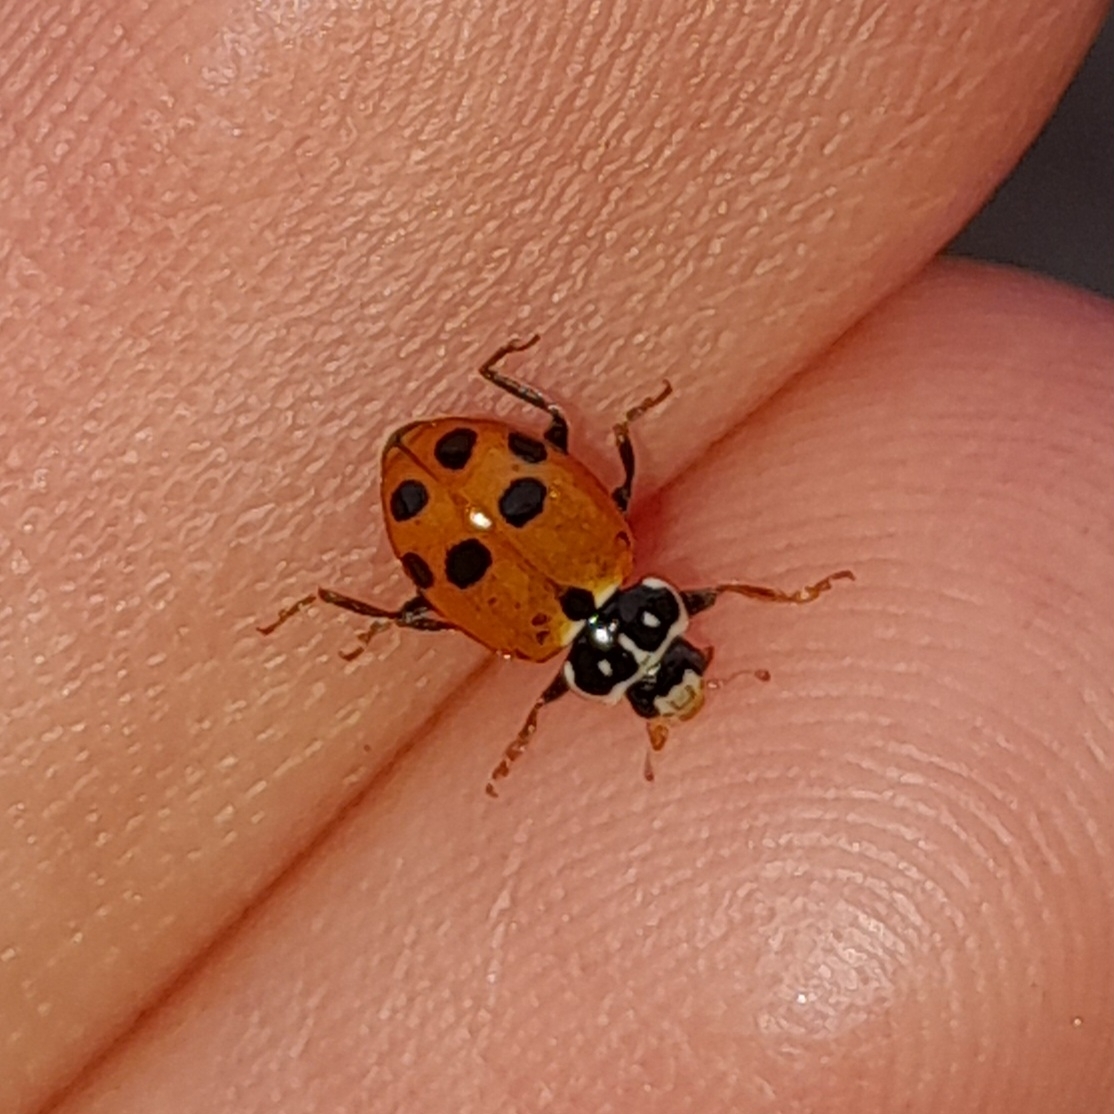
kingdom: Animalia
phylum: Arthropoda
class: Insecta
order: Coleoptera
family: Coccinellidae
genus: Hippodamia
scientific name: Hippodamia variegata
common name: Ladybird beetle
